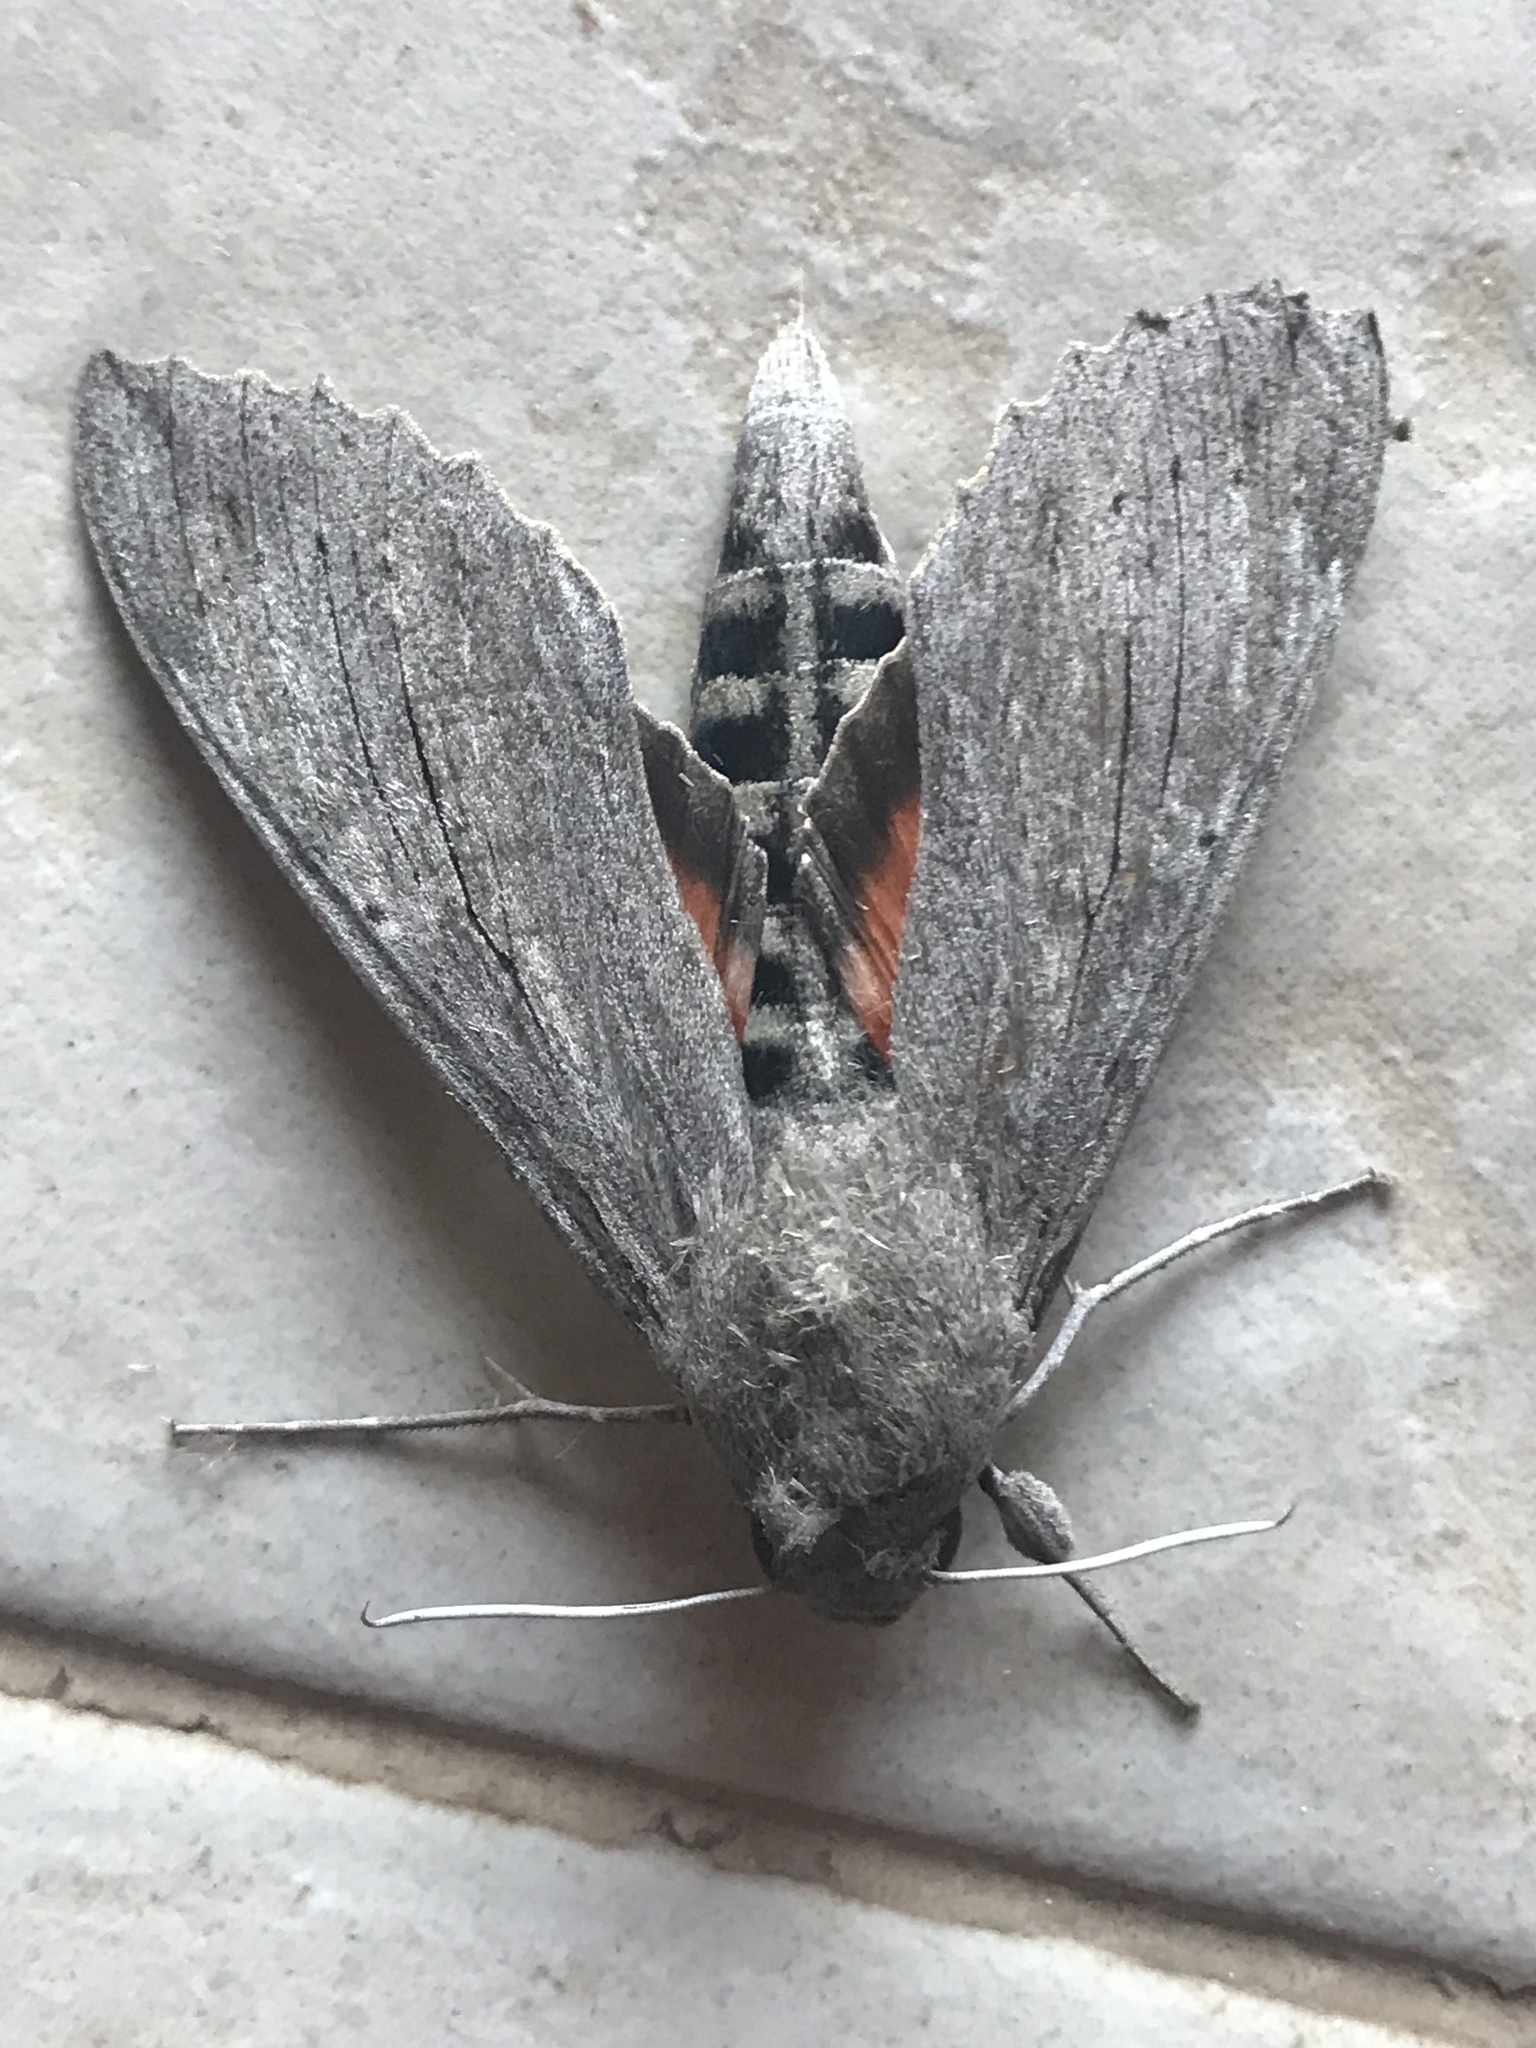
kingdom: Animalia
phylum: Arthropoda
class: Insecta
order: Lepidoptera
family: Sphingidae
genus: Erinnyis
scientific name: Erinnyis ello
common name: Ello sphinx
